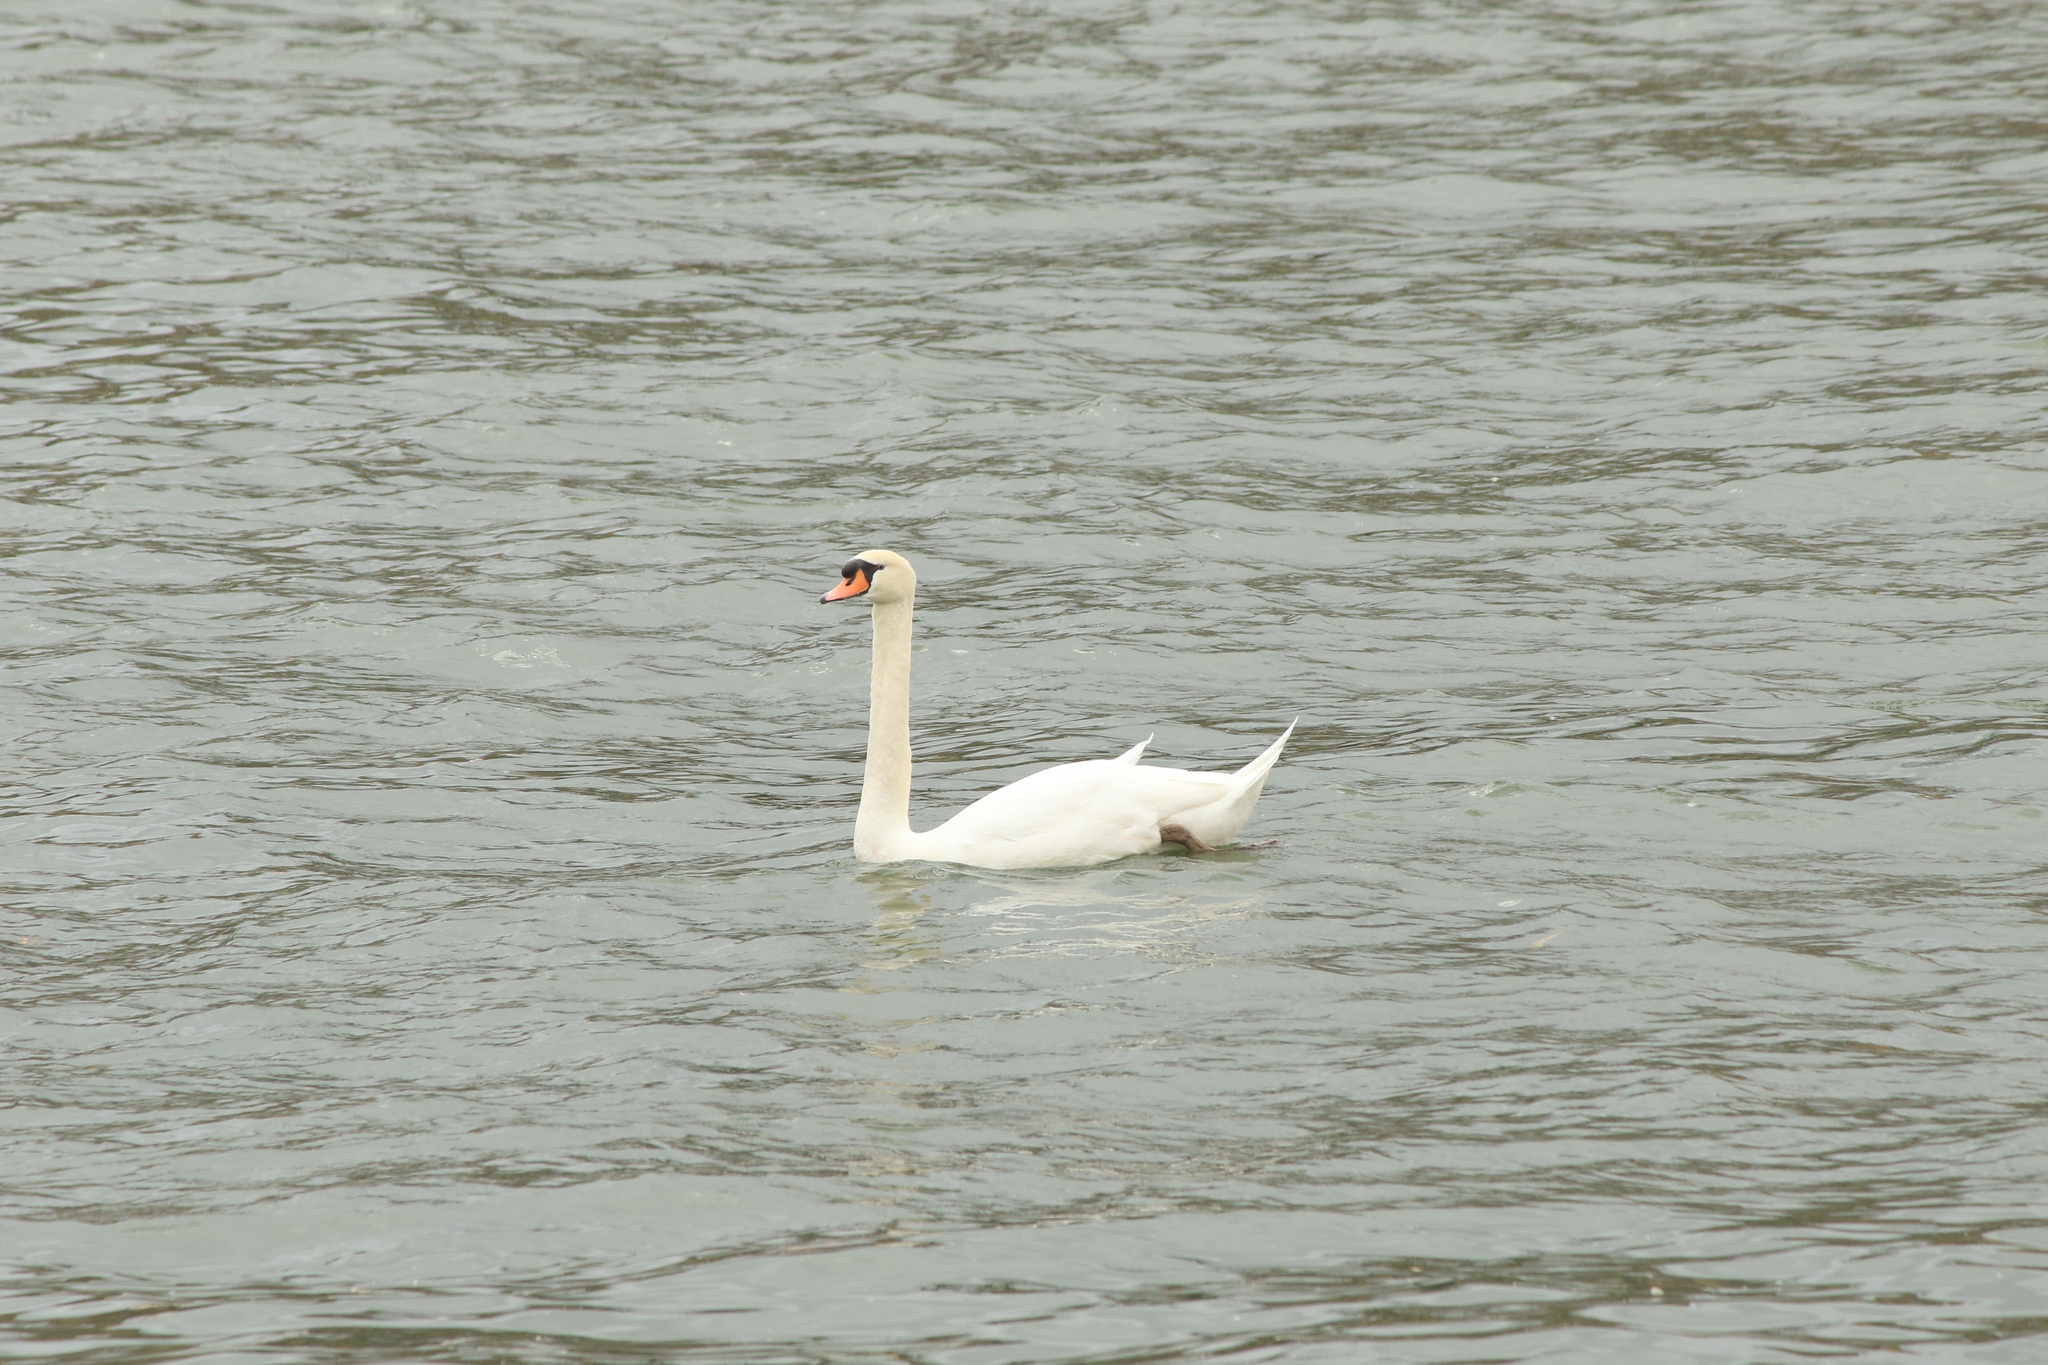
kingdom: Animalia
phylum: Chordata
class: Aves
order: Anseriformes
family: Anatidae
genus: Cygnus
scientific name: Cygnus olor
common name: Mute swan
